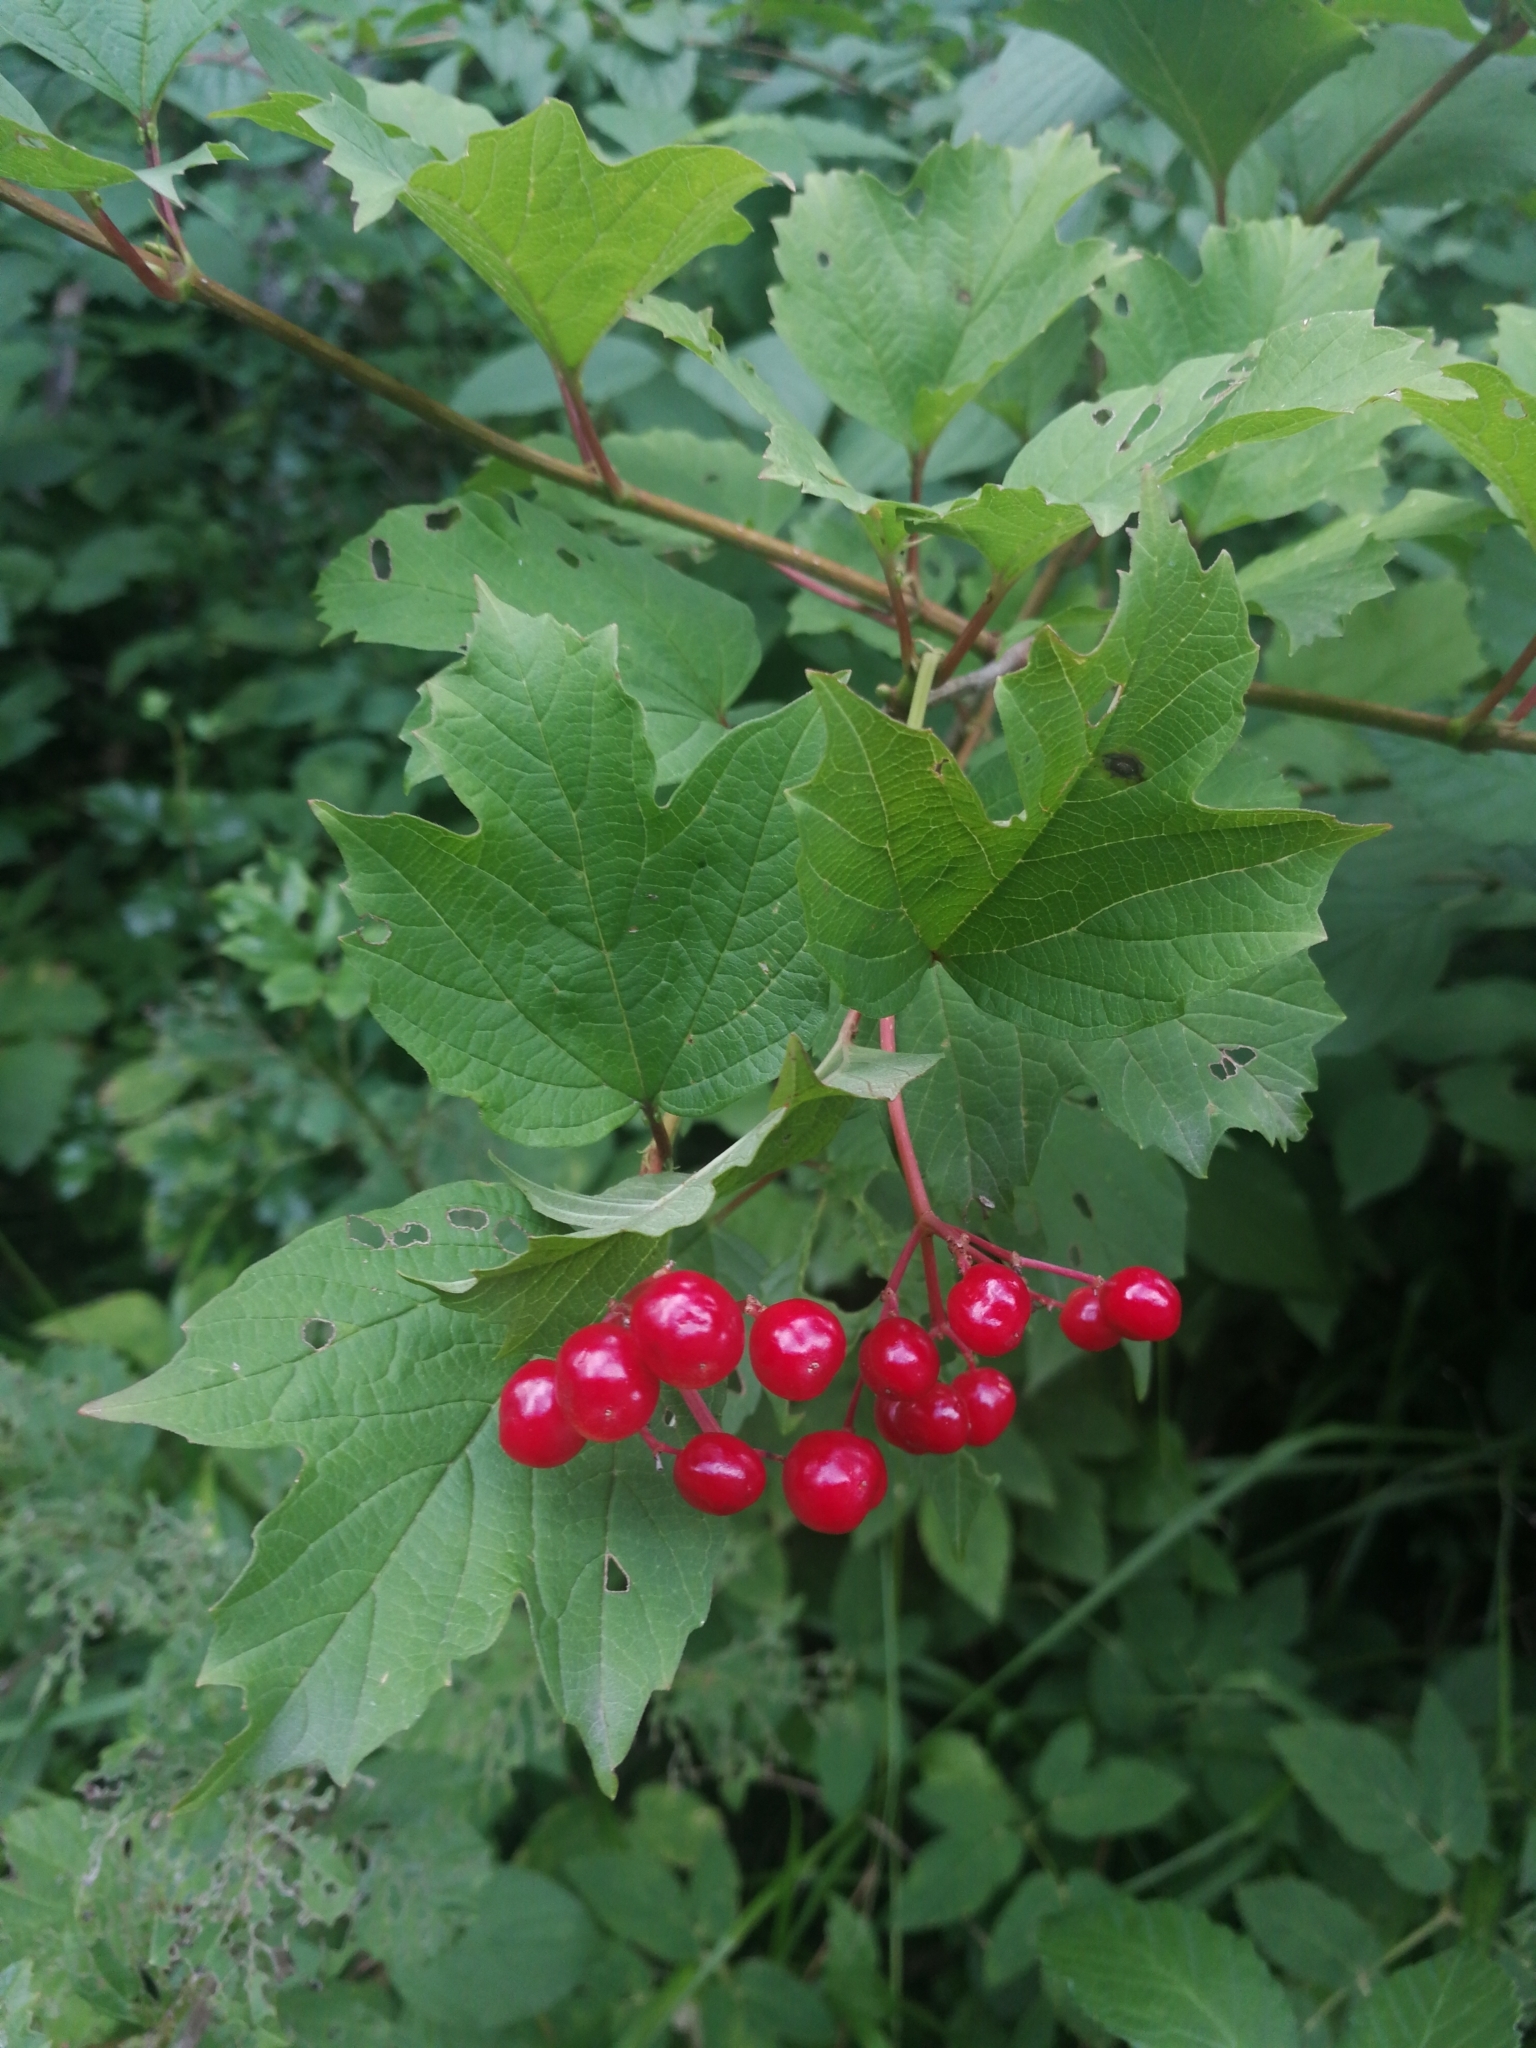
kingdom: Plantae
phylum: Tracheophyta
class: Magnoliopsida
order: Dipsacales
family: Viburnaceae
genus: Viburnum
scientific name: Viburnum opulus
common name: Guelder-rose
